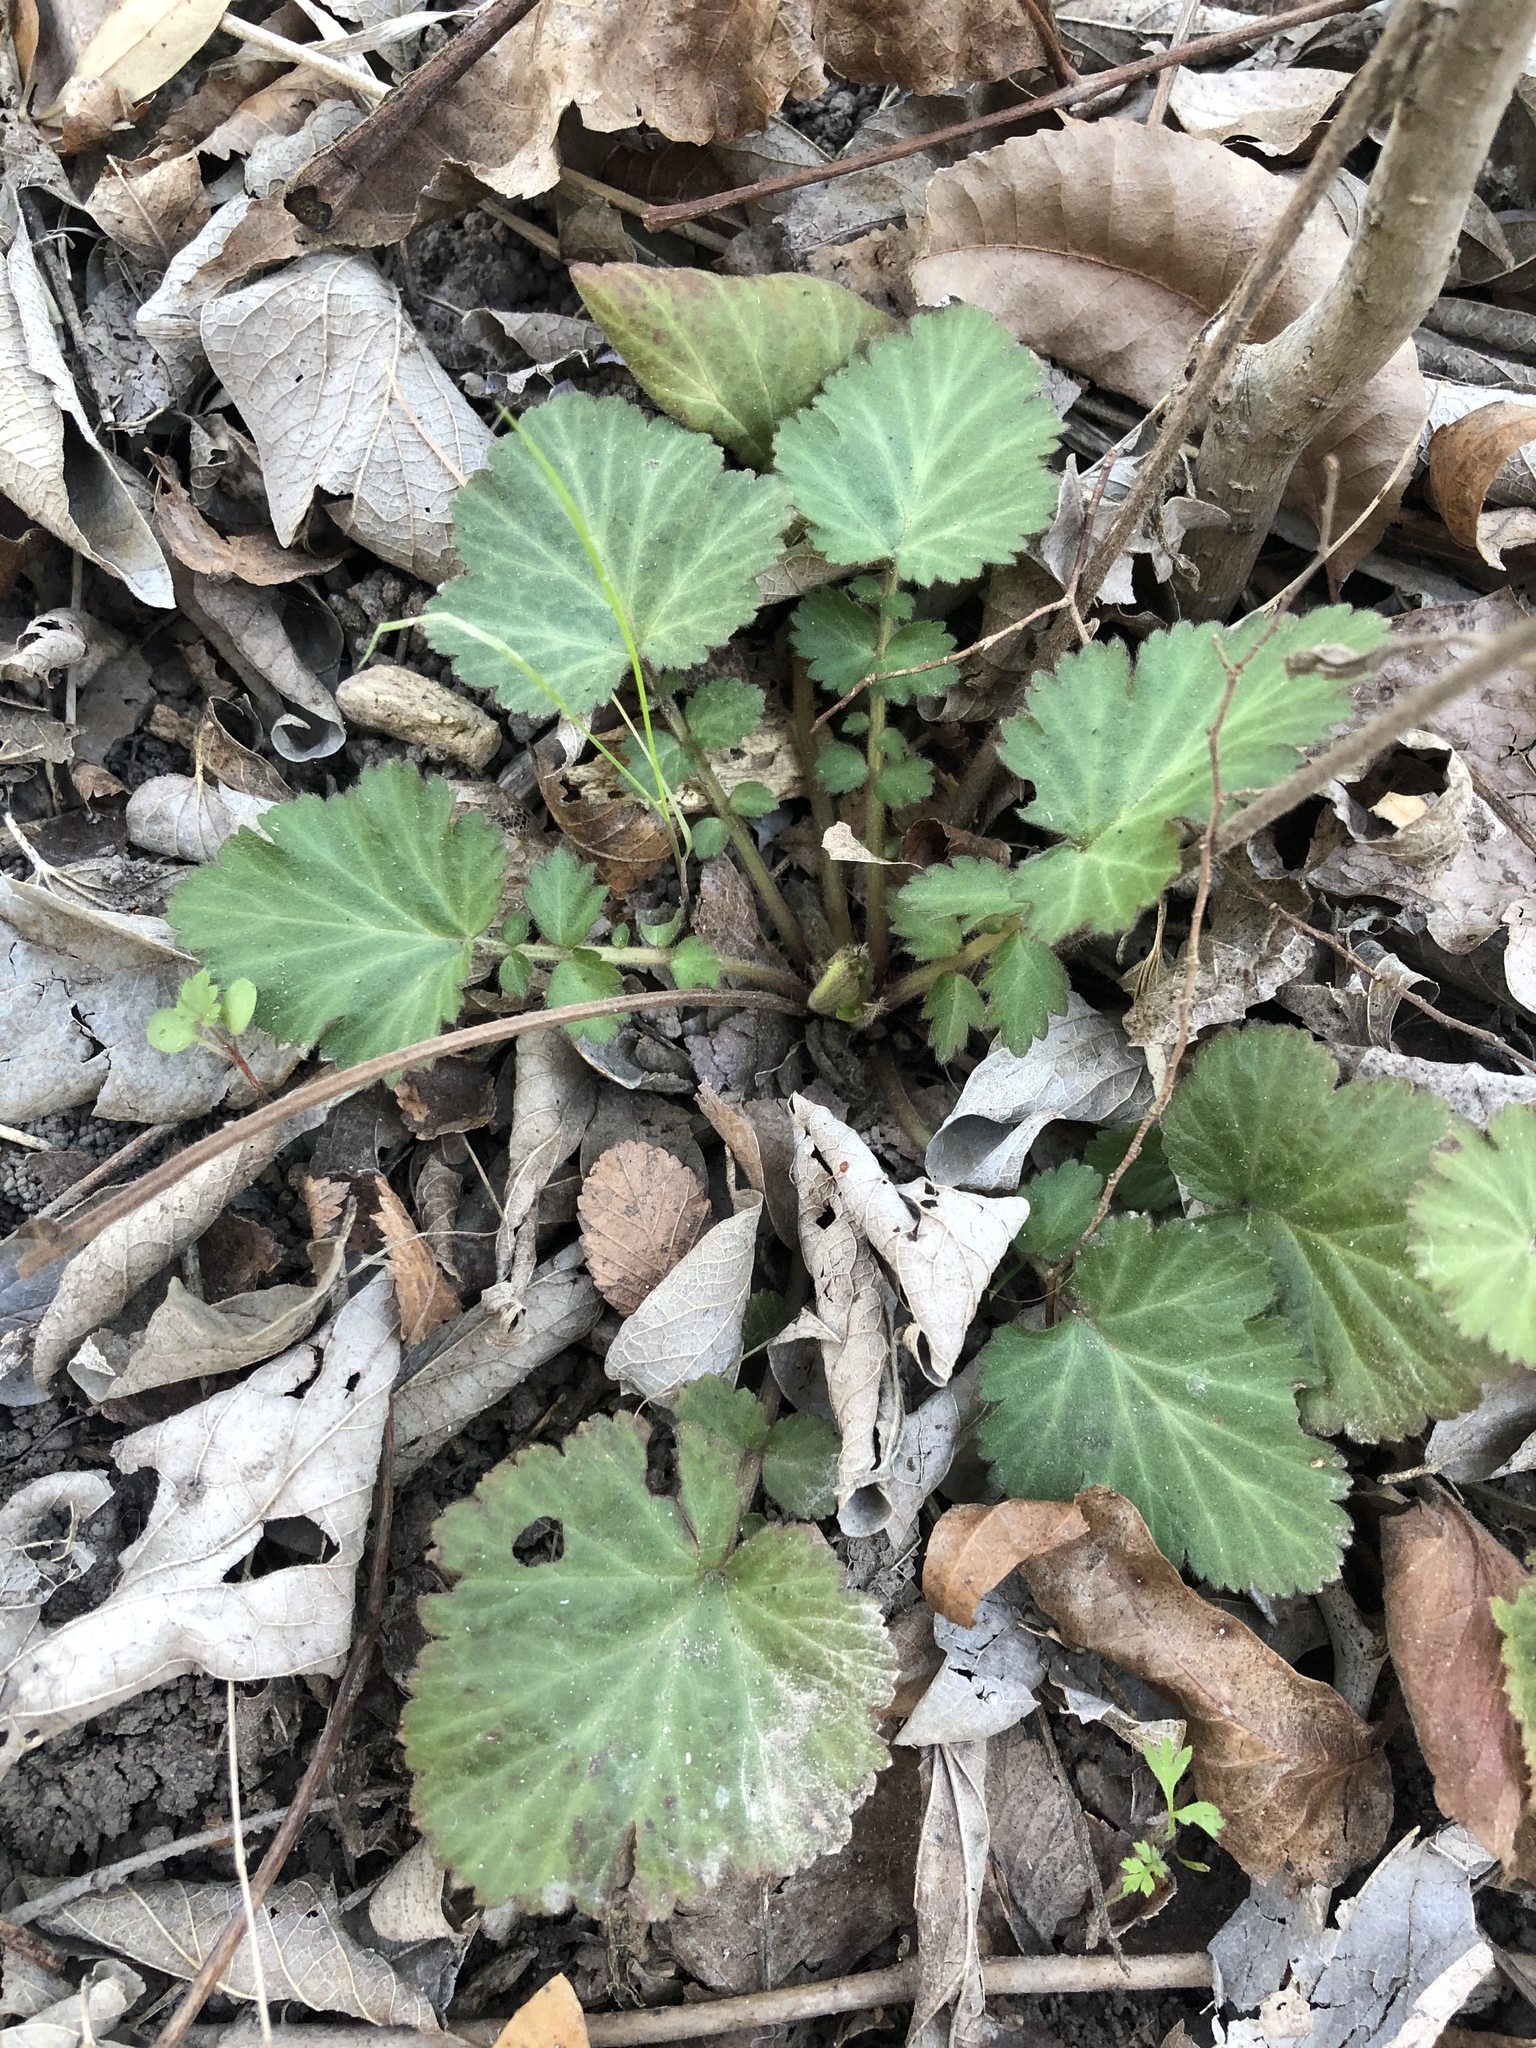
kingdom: Plantae
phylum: Tracheophyta
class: Magnoliopsida
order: Rosales
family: Rosaceae
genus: Geum
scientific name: Geum canadense
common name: White avens
